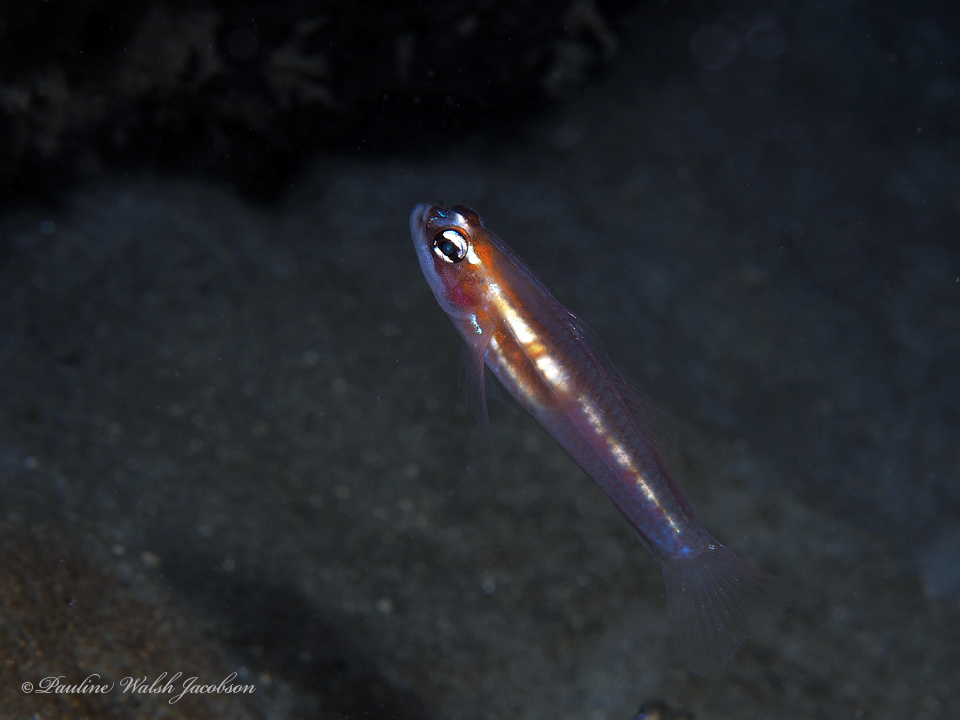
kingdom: Animalia
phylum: Chordata
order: Perciformes
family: Gobiidae
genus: Coryphopterus
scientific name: Coryphopterus personatus
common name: Masked goby
